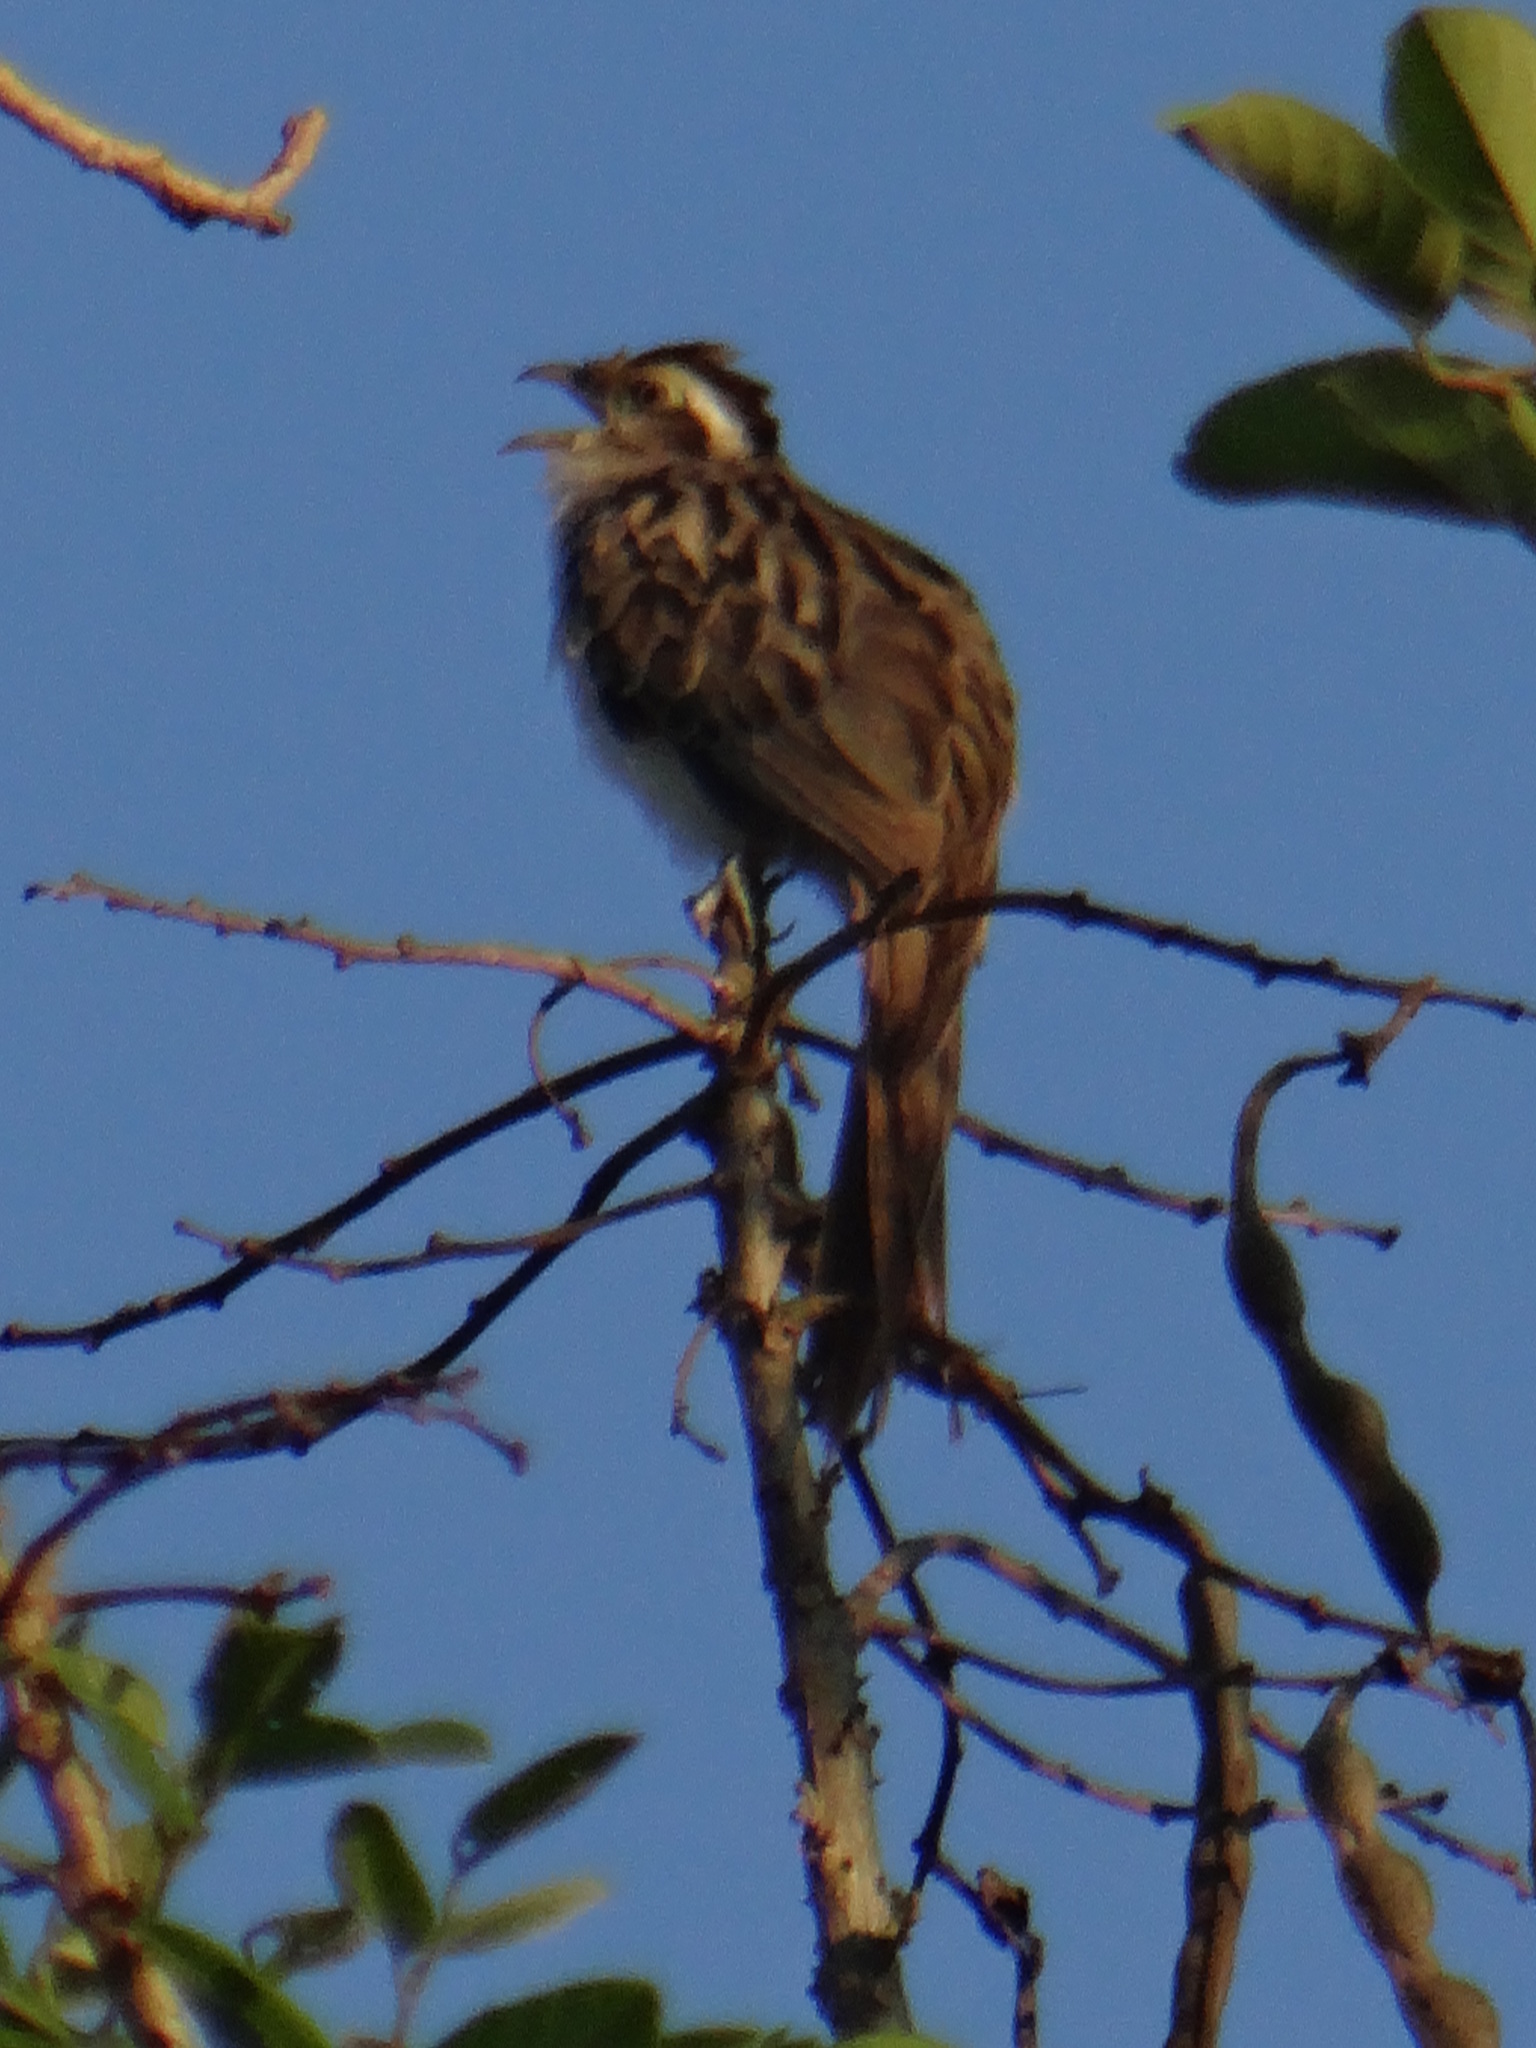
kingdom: Animalia
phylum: Chordata
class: Aves
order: Cuculiformes
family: Cuculidae
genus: Tapera
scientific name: Tapera naevia
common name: Striped cuckoo
